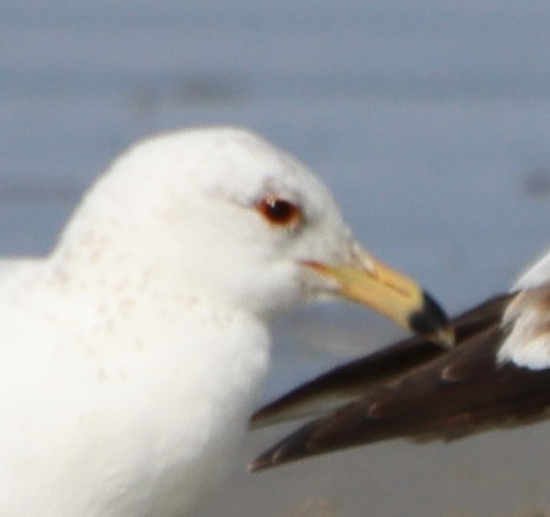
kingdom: Animalia
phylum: Chordata
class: Aves
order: Charadriiformes
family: Laridae
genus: Larus
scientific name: Larus delawarensis
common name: Ring-billed gull
